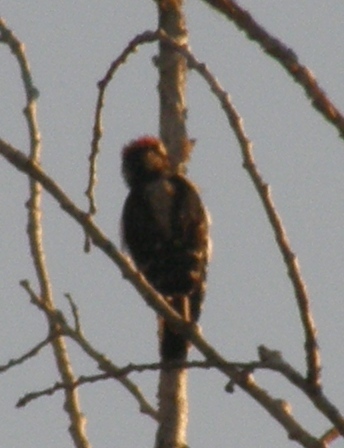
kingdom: Animalia
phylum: Chordata
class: Aves
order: Piciformes
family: Picidae
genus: Dryobates
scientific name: Dryobates pubescens
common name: Downy woodpecker
